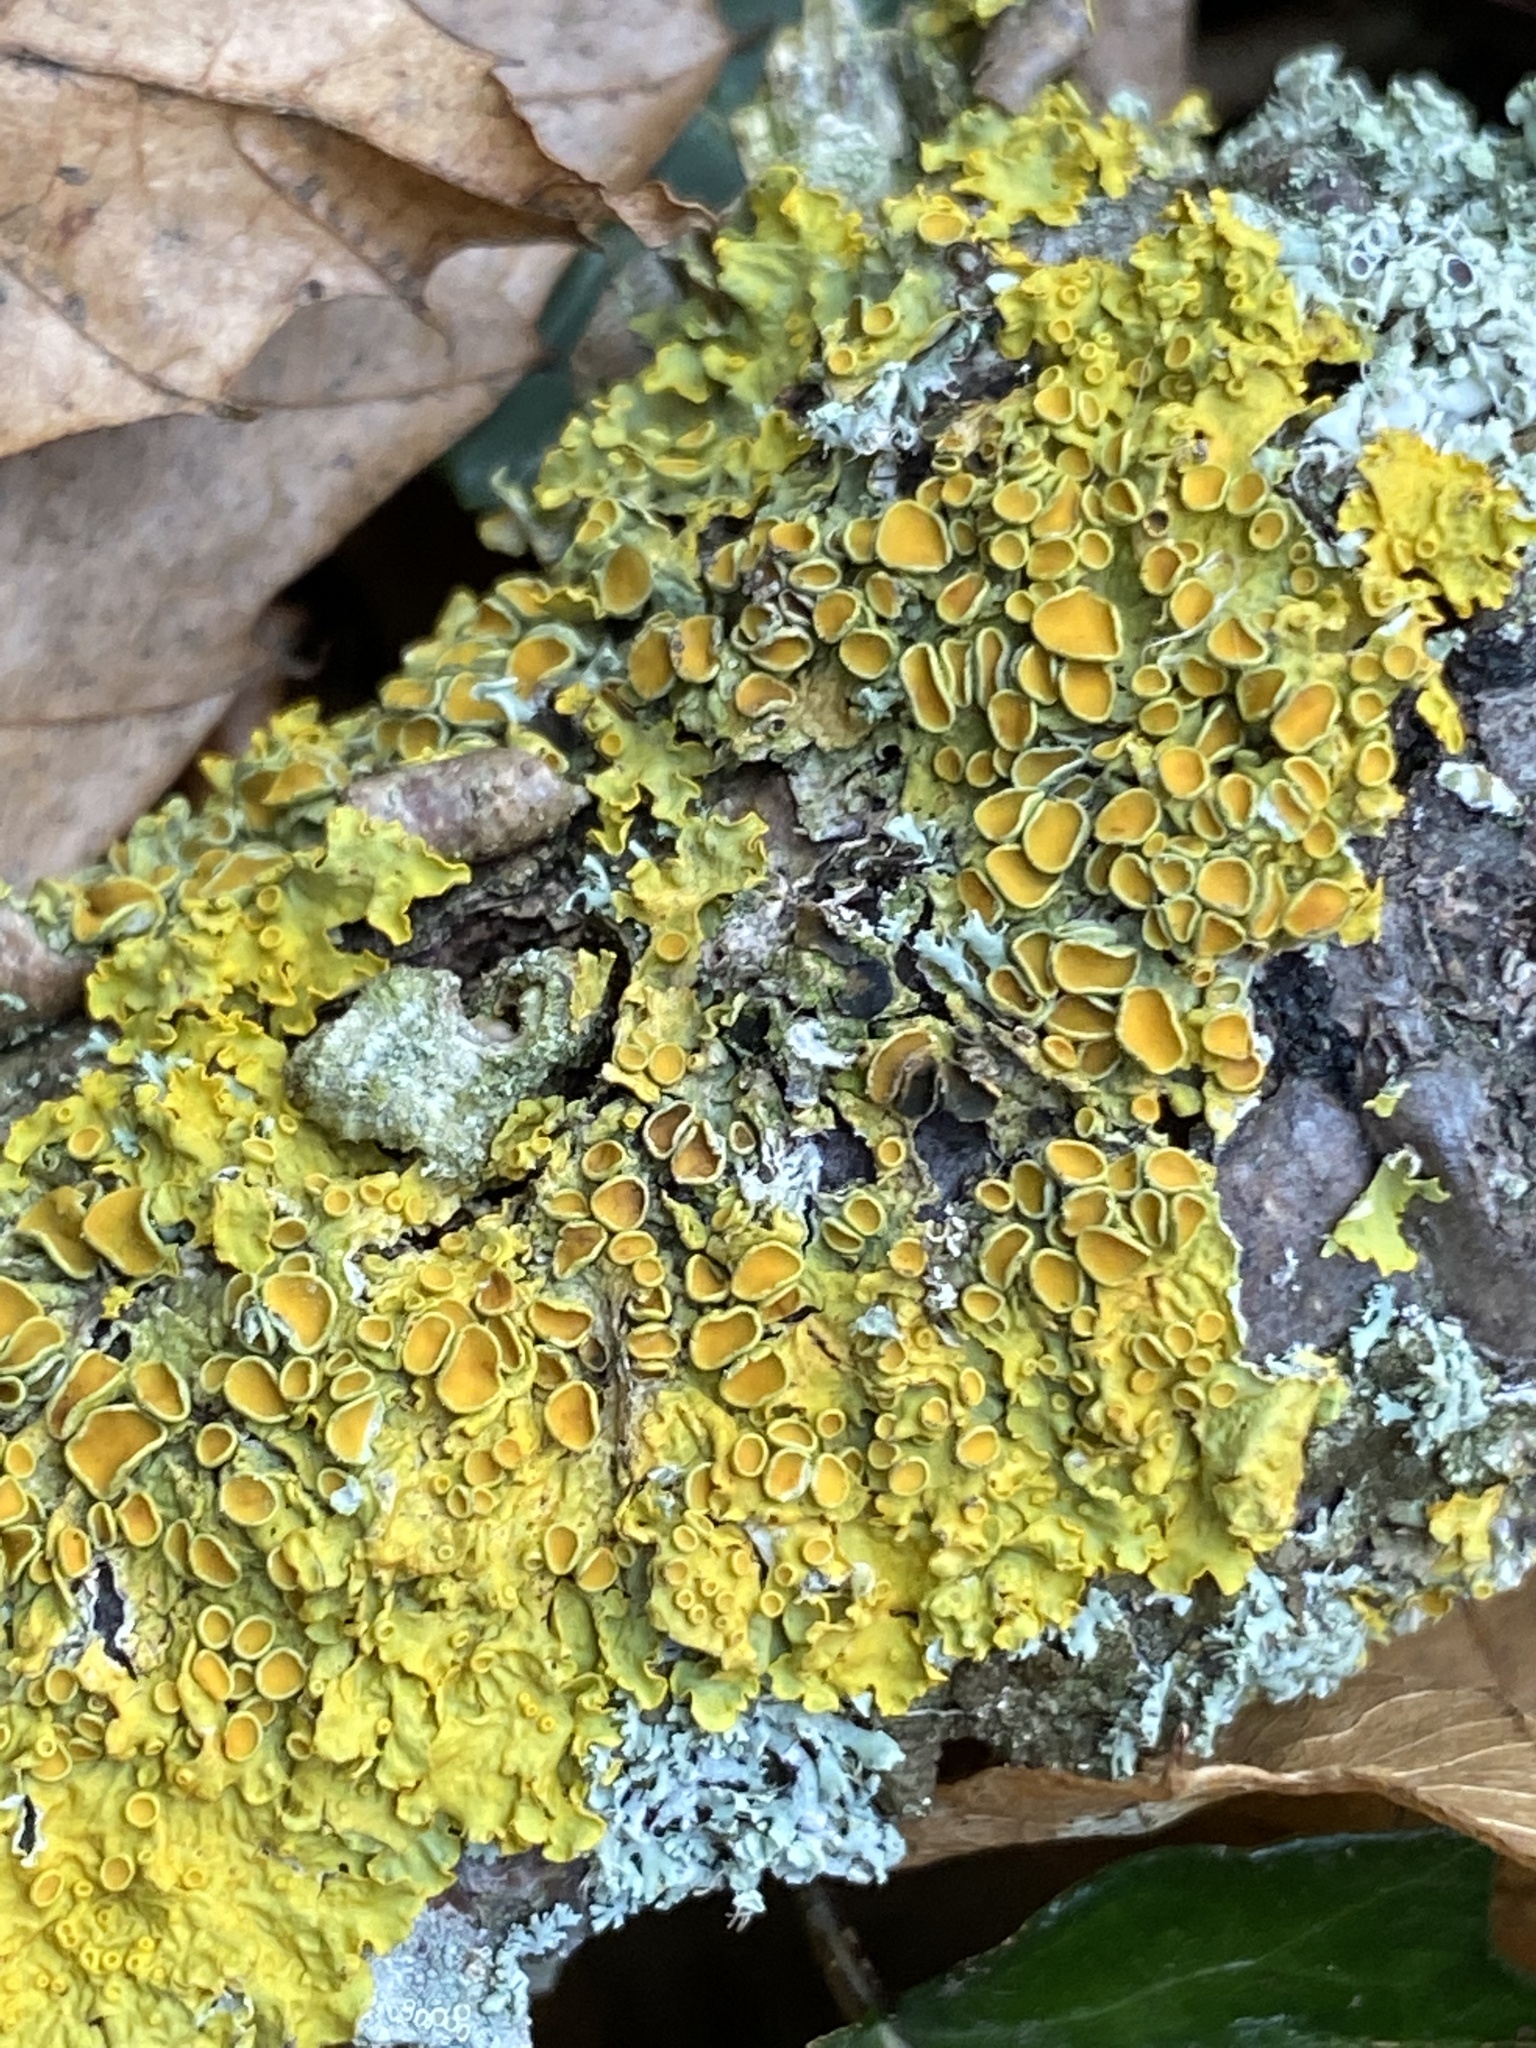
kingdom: Fungi
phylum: Ascomycota
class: Lecanoromycetes
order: Teloschistales
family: Teloschistaceae
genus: Xanthoria
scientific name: Xanthoria parietina
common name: Common orange lichen
